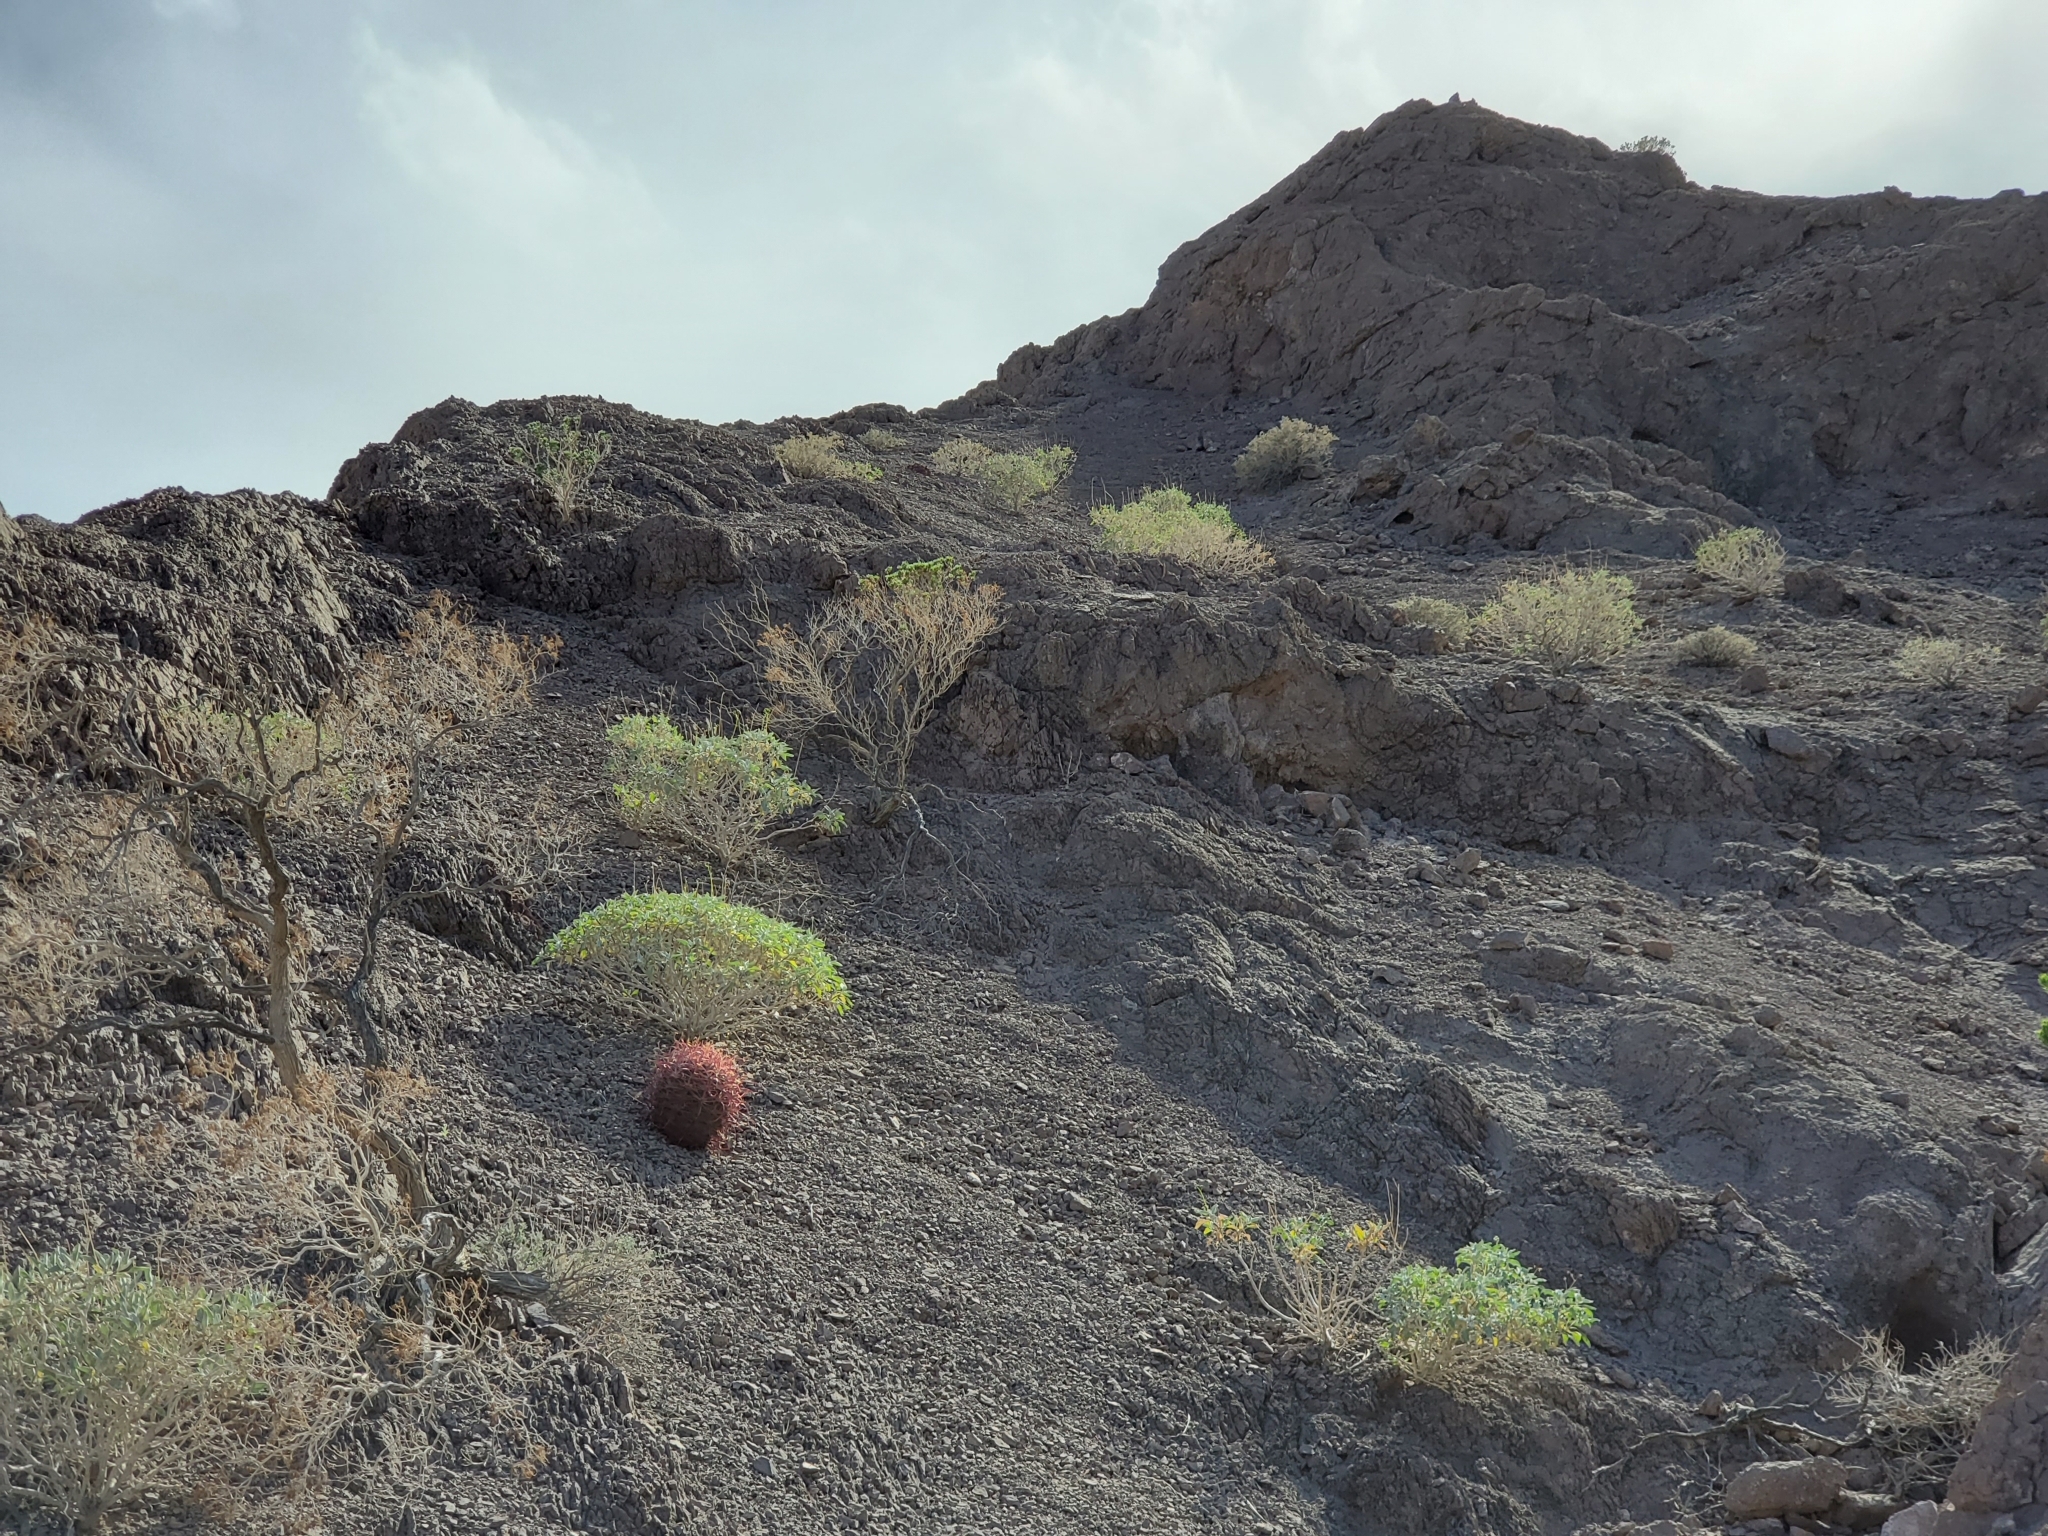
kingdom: Plantae
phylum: Tracheophyta
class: Magnoliopsida
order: Caryophyllales
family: Cactaceae
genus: Ferocactus
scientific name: Ferocactus cylindraceus
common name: California barrel cactus
